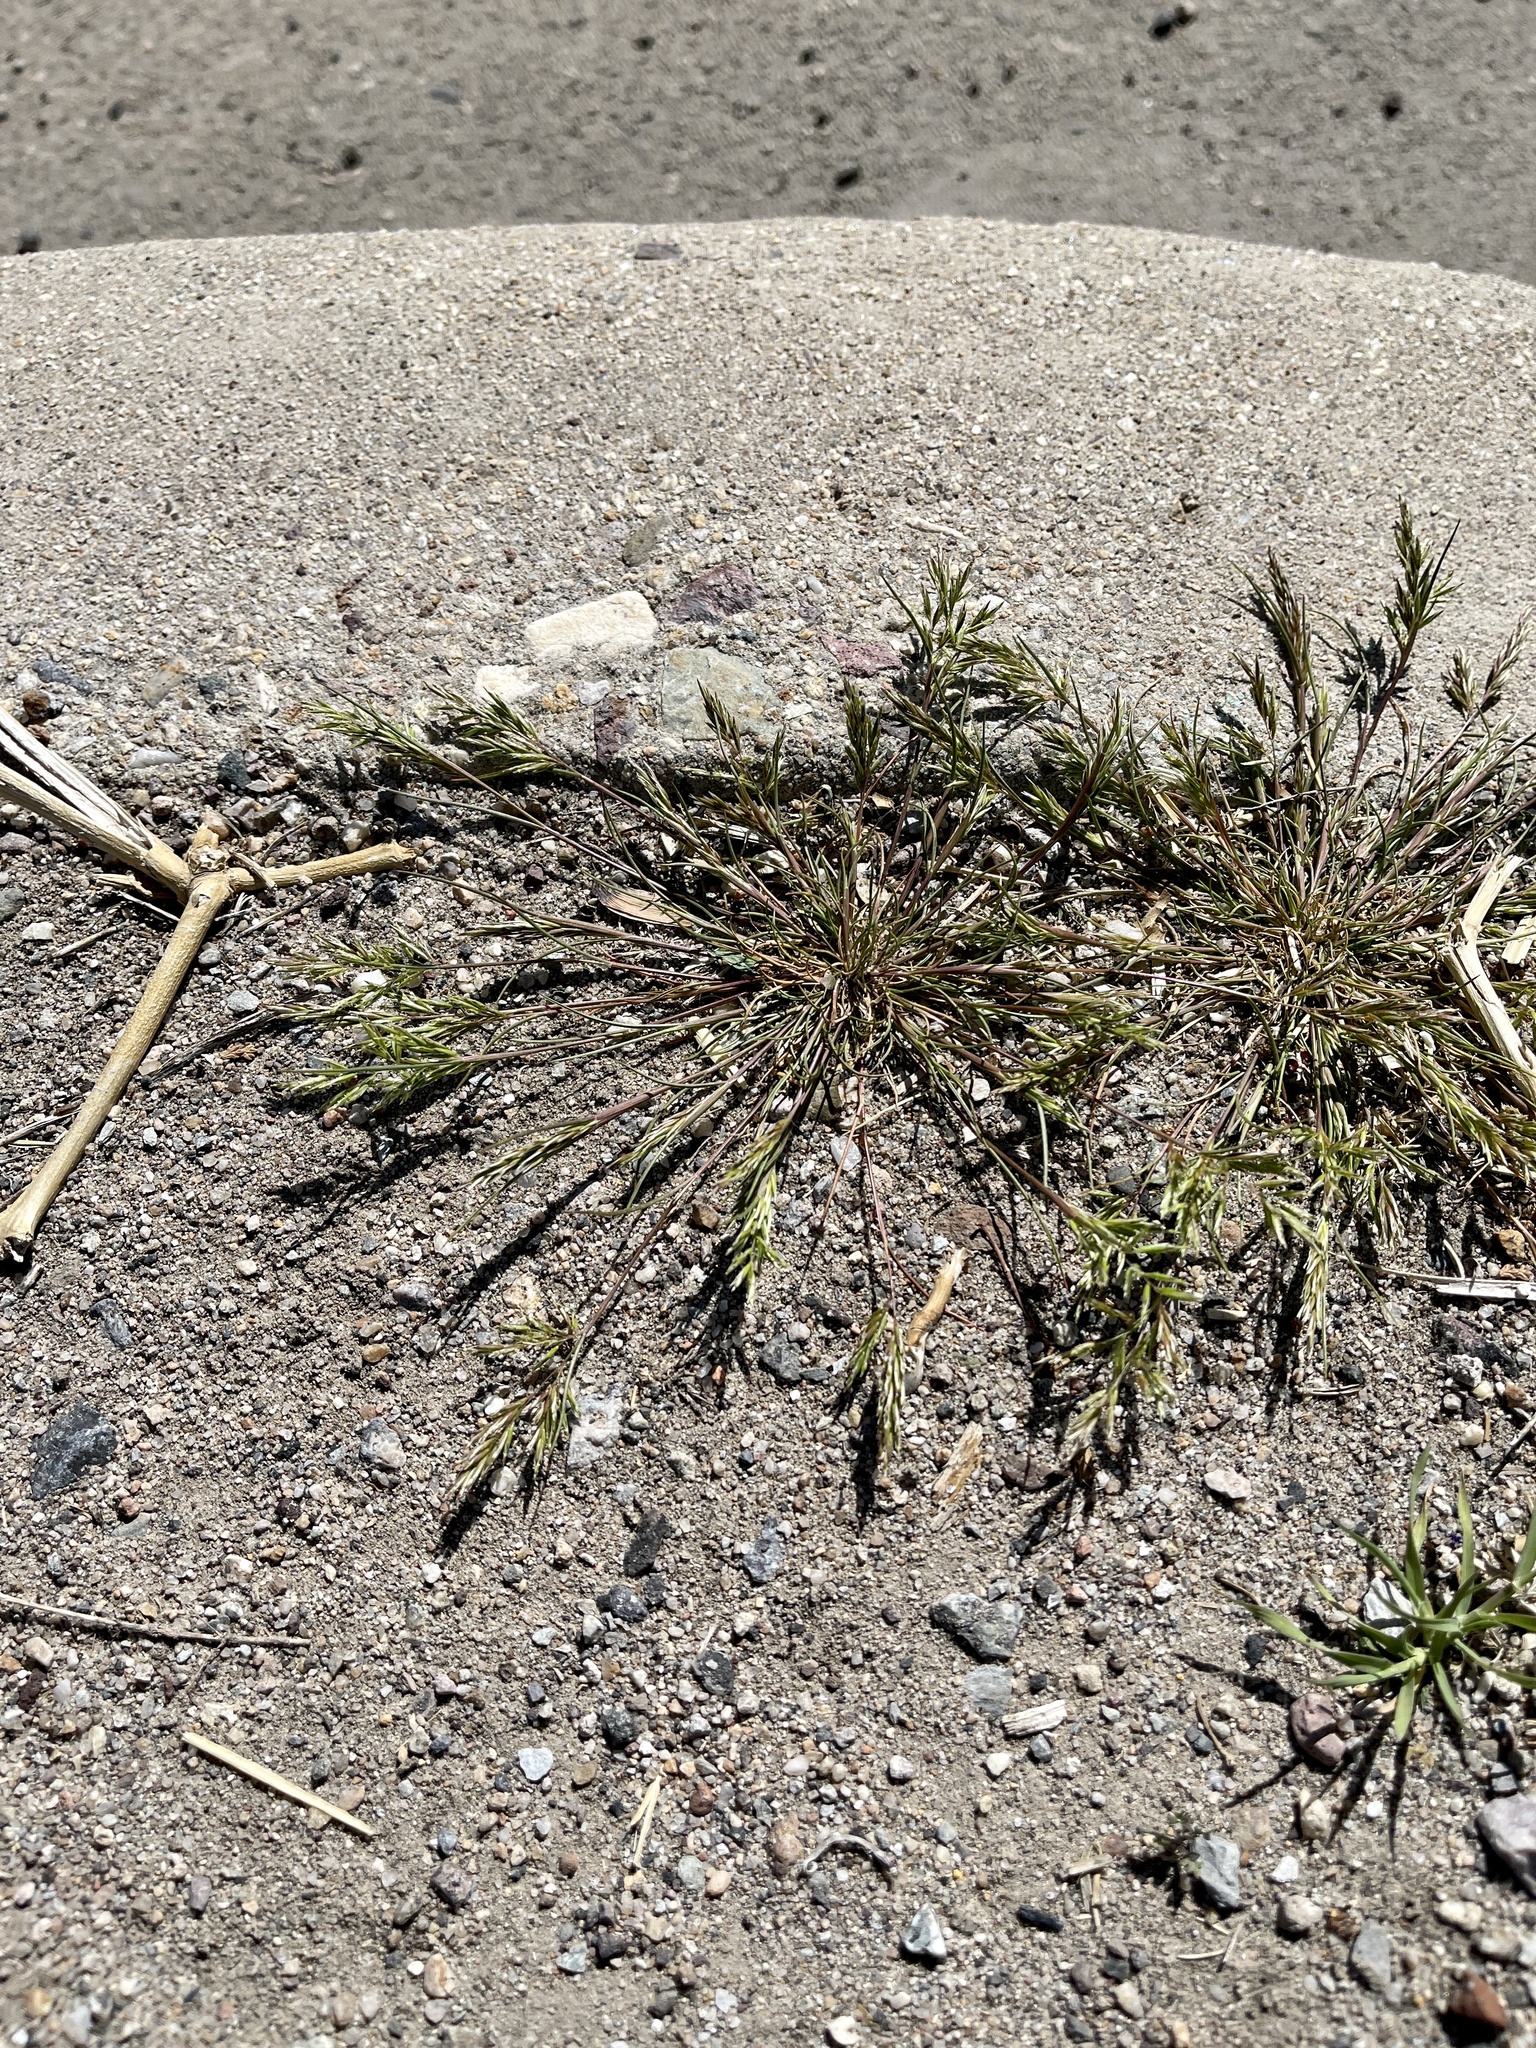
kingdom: Plantae
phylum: Tracheophyta
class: Liliopsida
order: Poales
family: Poaceae
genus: Schismus
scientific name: Schismus barbatus
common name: Kelch-grass
